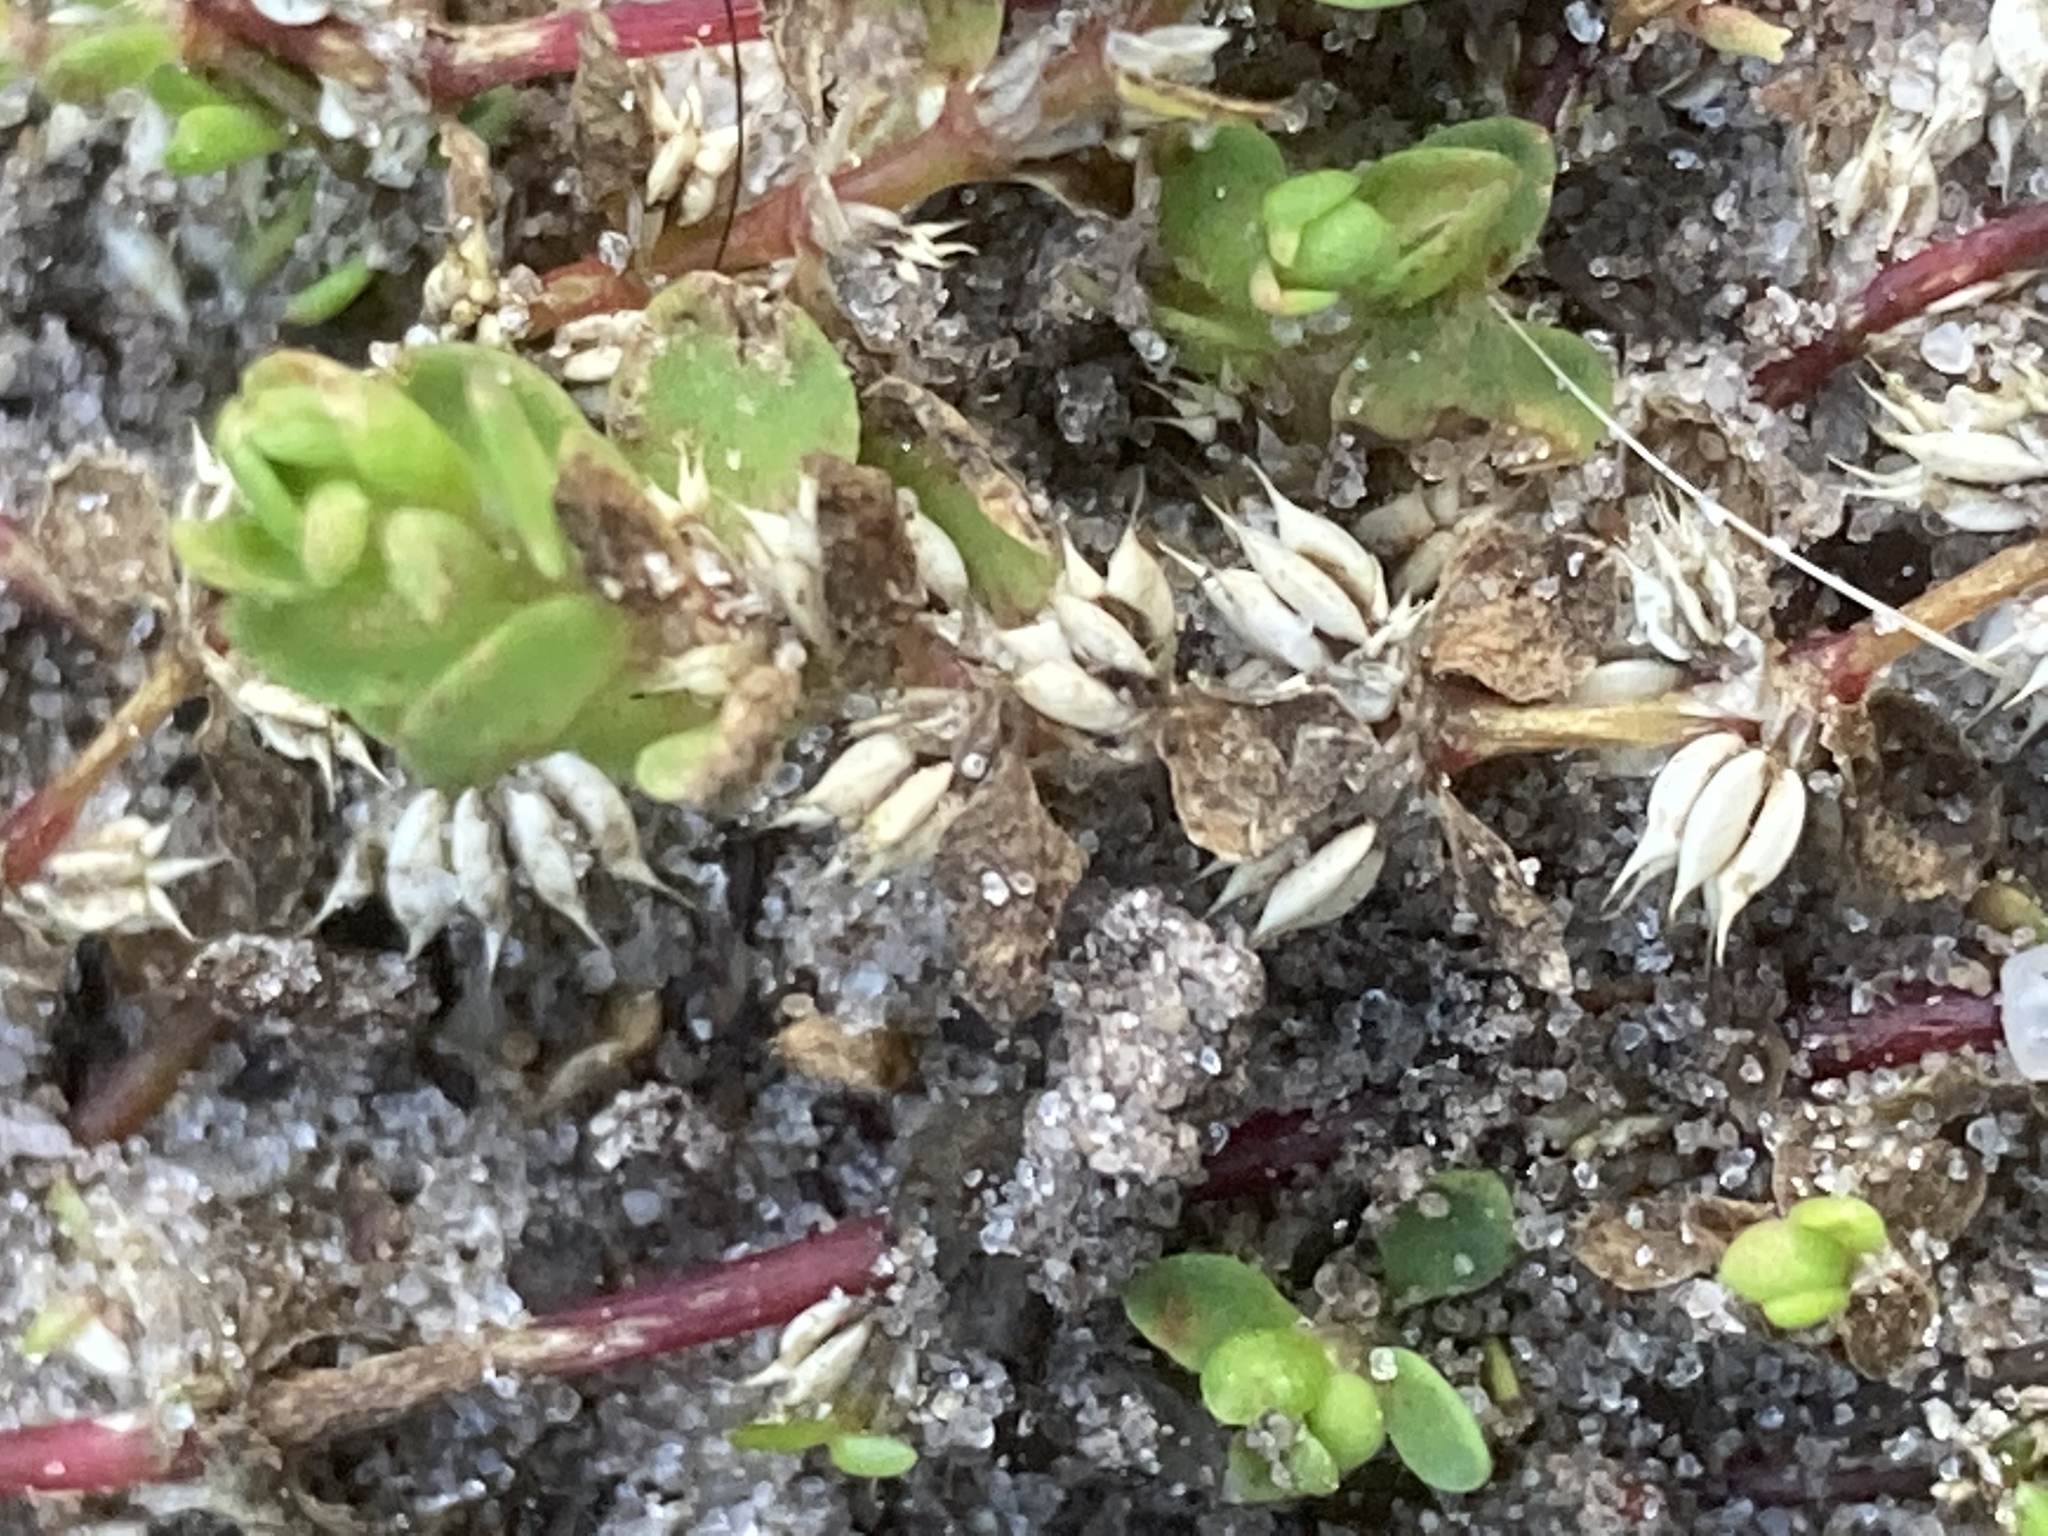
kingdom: Plantae
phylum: Tracheophyta
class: Magnoliopsida
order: Caryophyllales
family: Caryophyllaceae
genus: Illecebrum
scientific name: Illecebrum verticillatum
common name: Coral necklace
